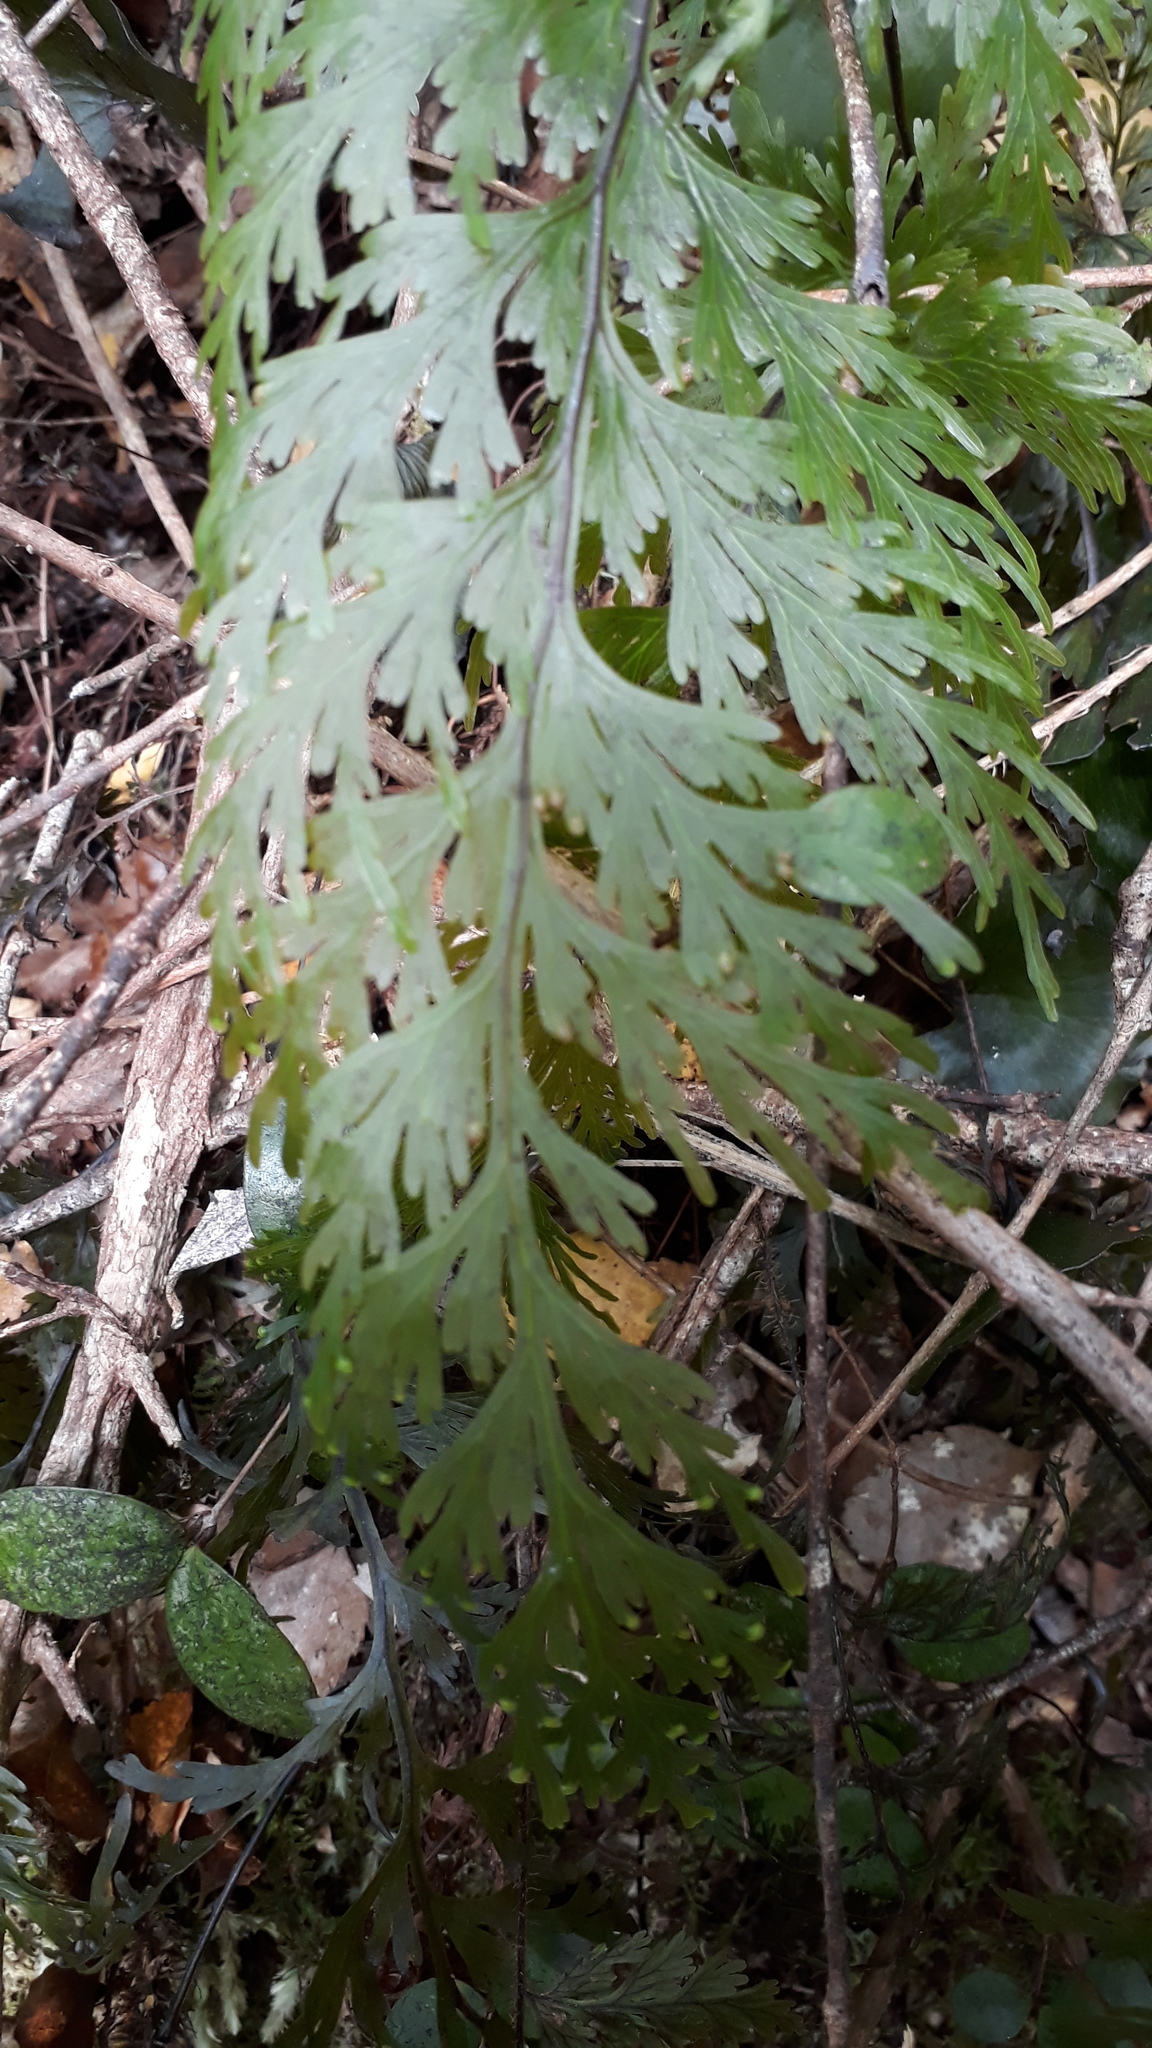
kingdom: Plantae
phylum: Tracheophyta
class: Polypodiopsida
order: Hymenophyllales
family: Hymenophyllaceae
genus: Hymenophyllum
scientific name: Hymenophyllum dilatatum
